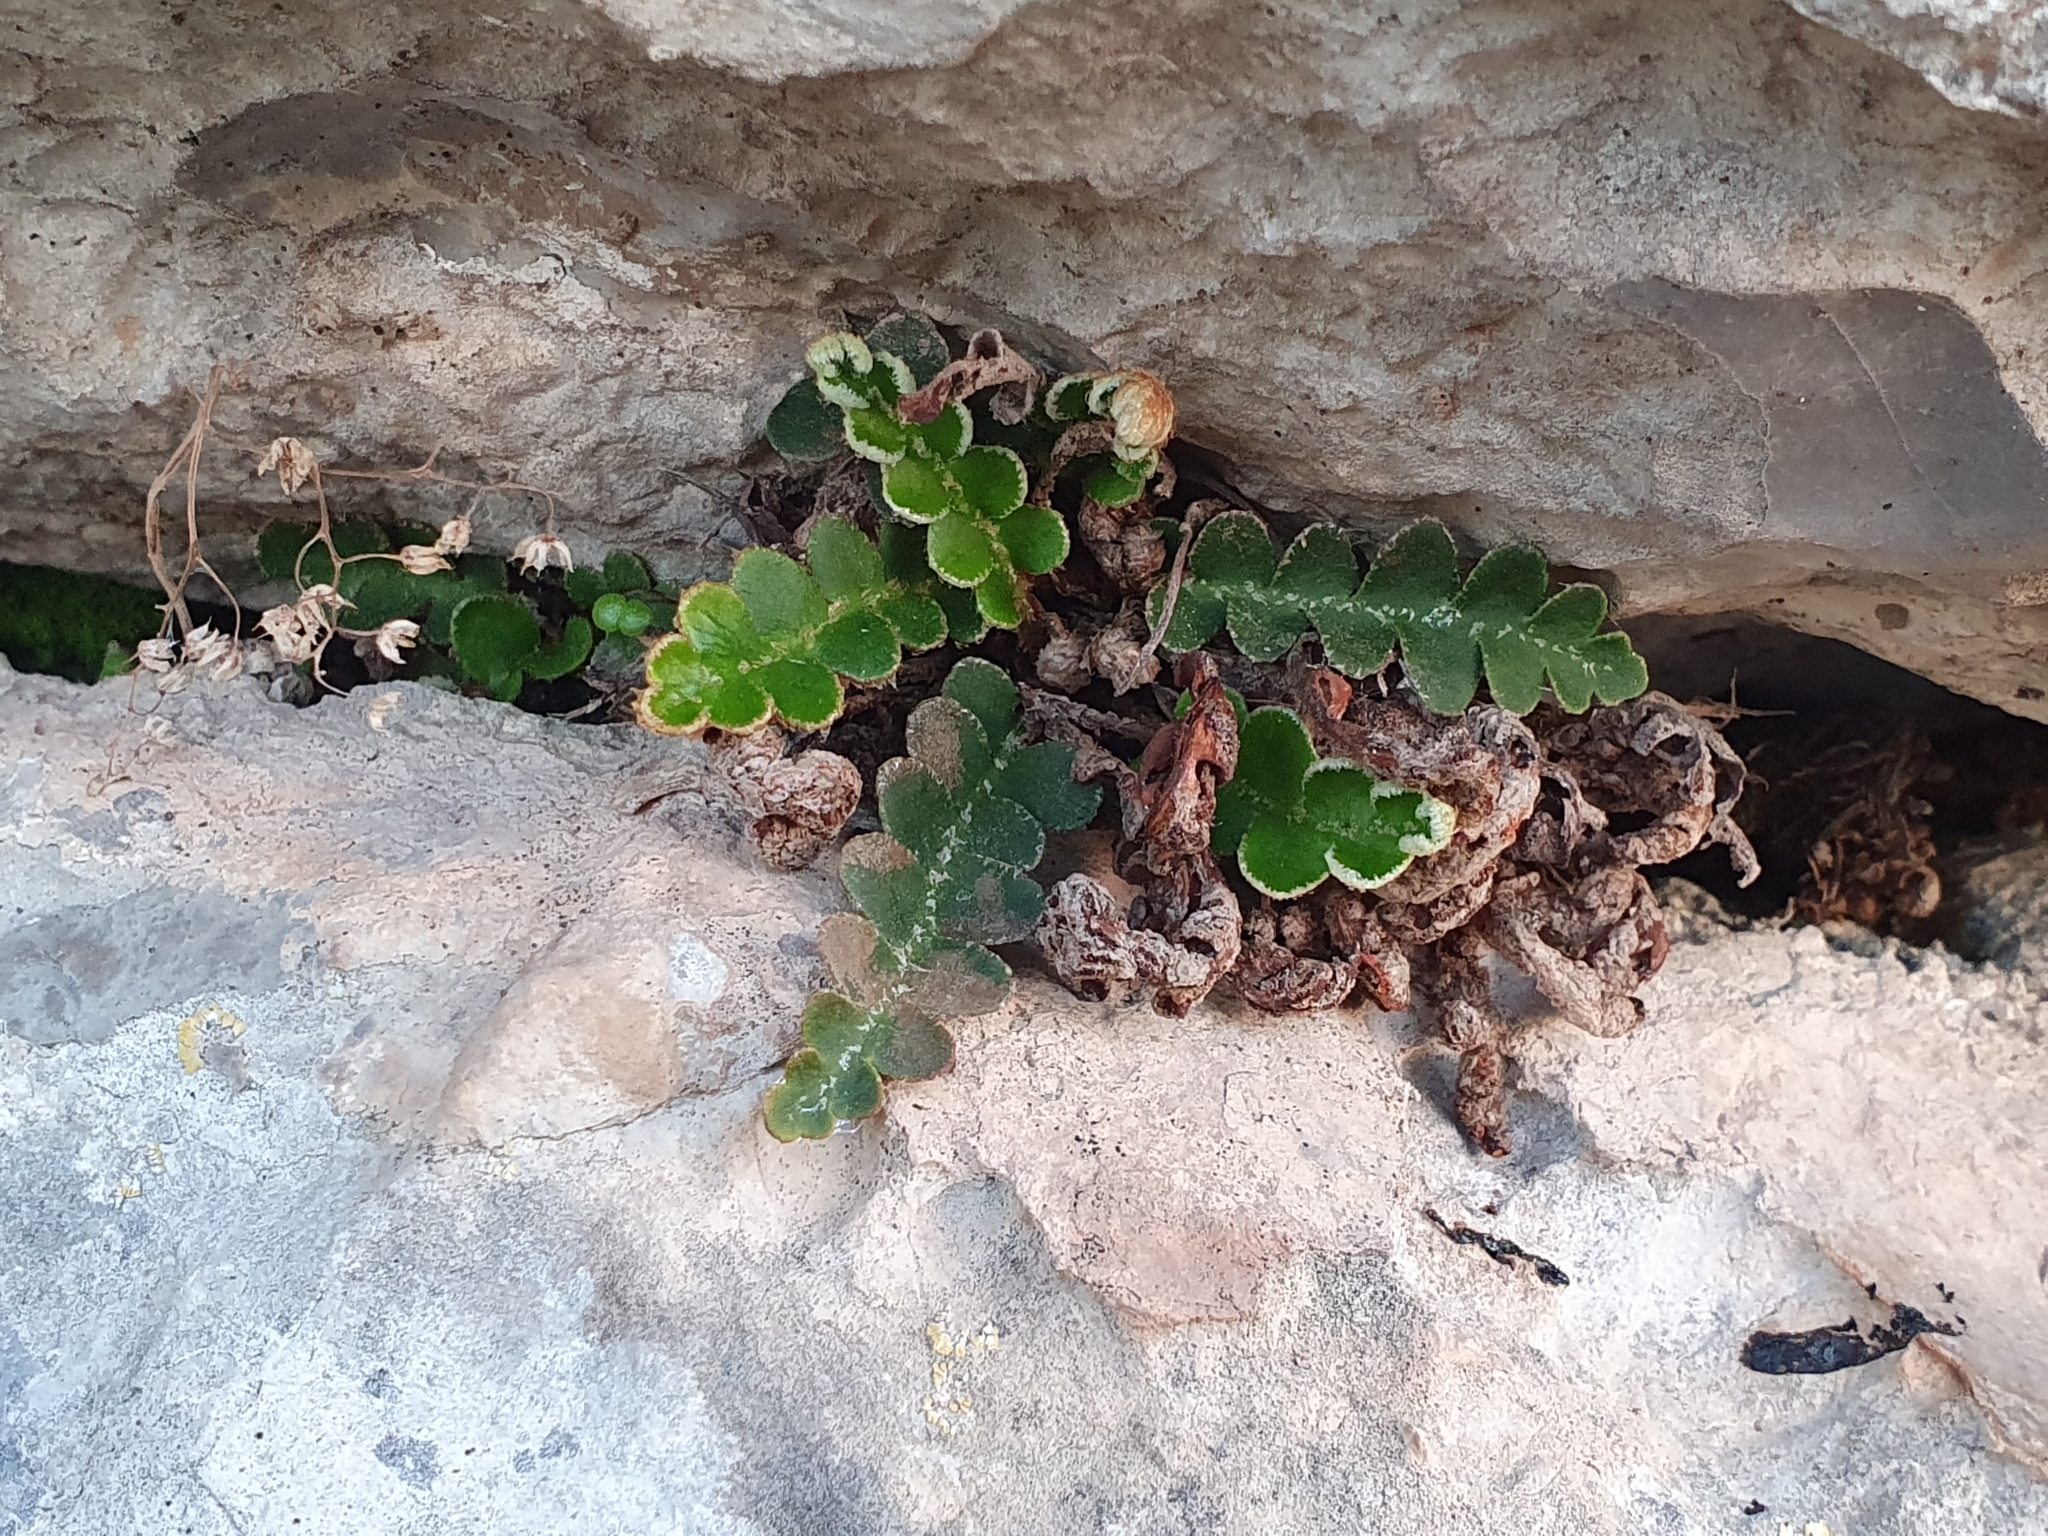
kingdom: Plantae
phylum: Tracheophyta
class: Polypodiopsida
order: Polypodiales
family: Aspleniaceae
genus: Asplenium
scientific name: Asplenium ceterach
